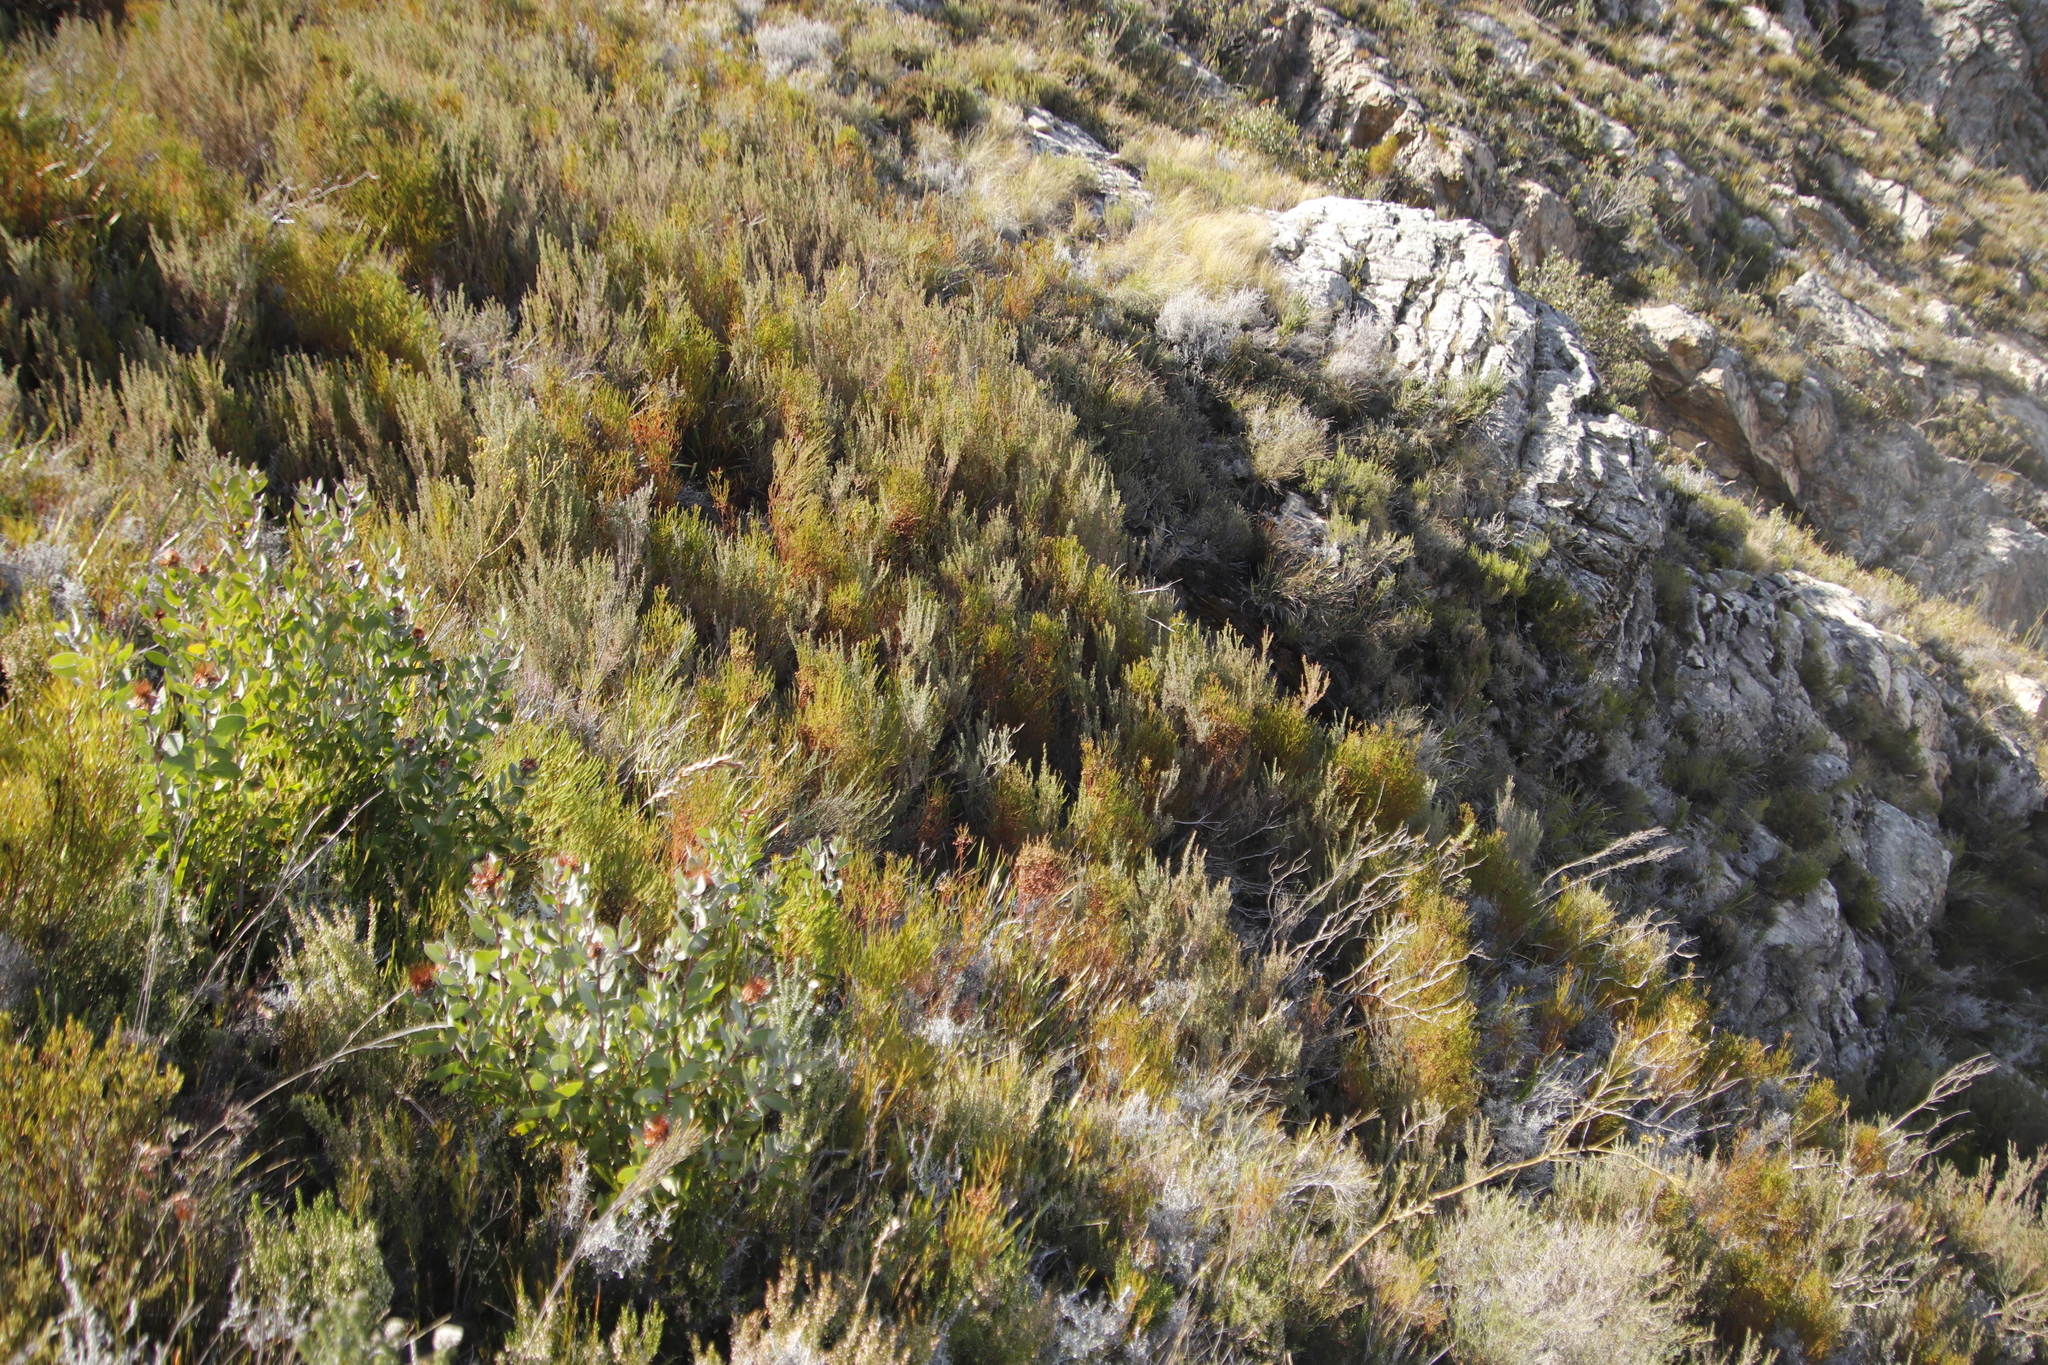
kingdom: Plantae
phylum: Tracheophyta
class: Magnoliopsida
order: Proteales
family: Proteaceae
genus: Protea
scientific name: Protea punctata
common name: Water sugarbush
